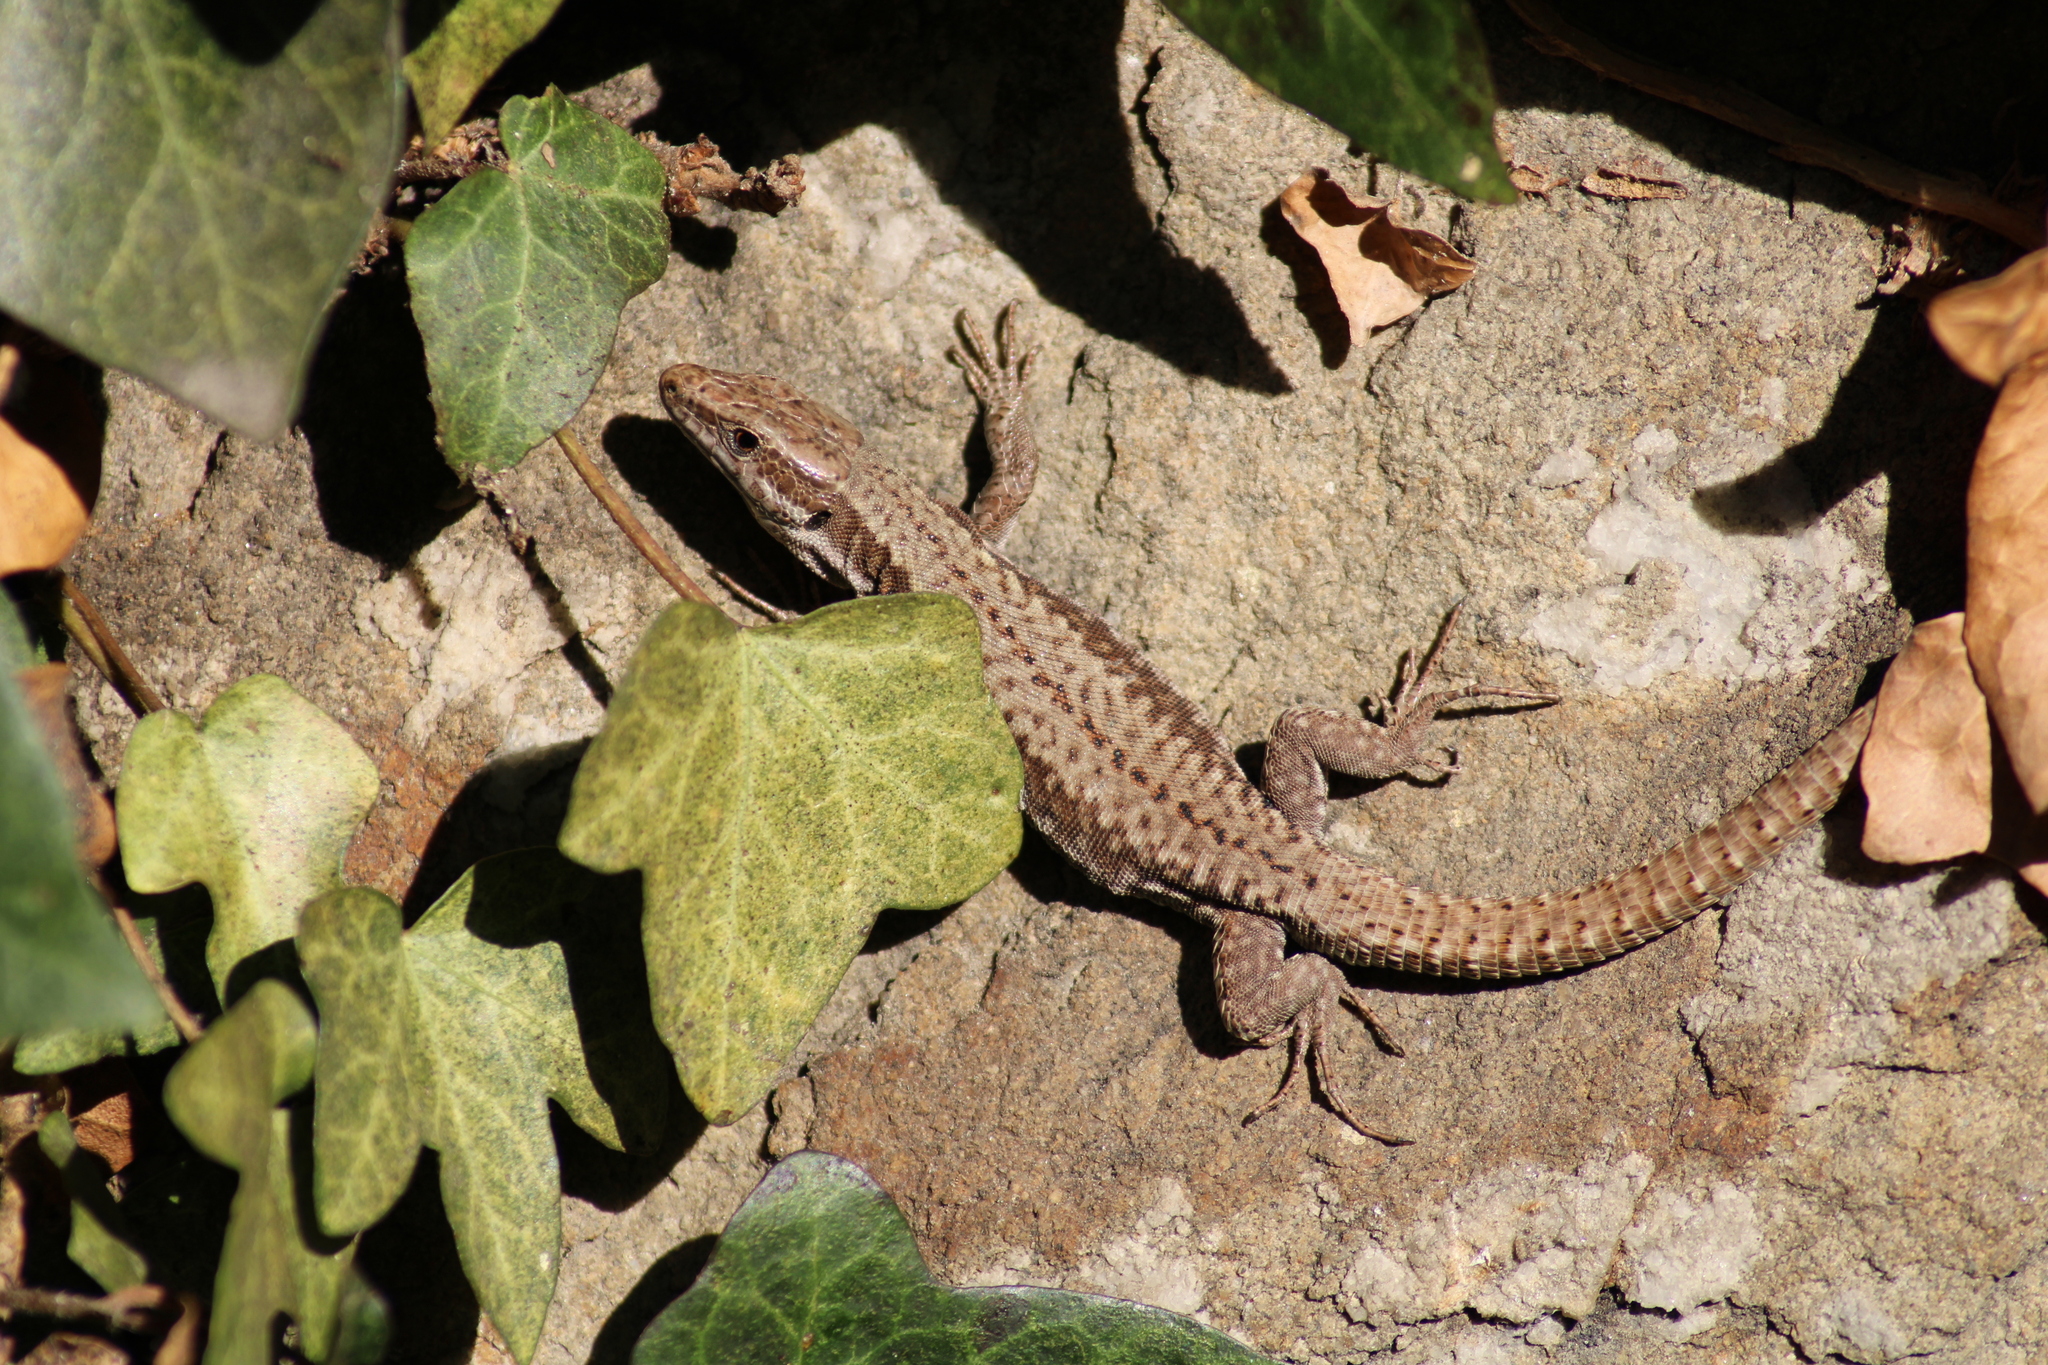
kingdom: Animalia
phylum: Chordata
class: Squamata
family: Lacertidae
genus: Podarcis
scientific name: Podarcis muralis
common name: Common wall lizard
